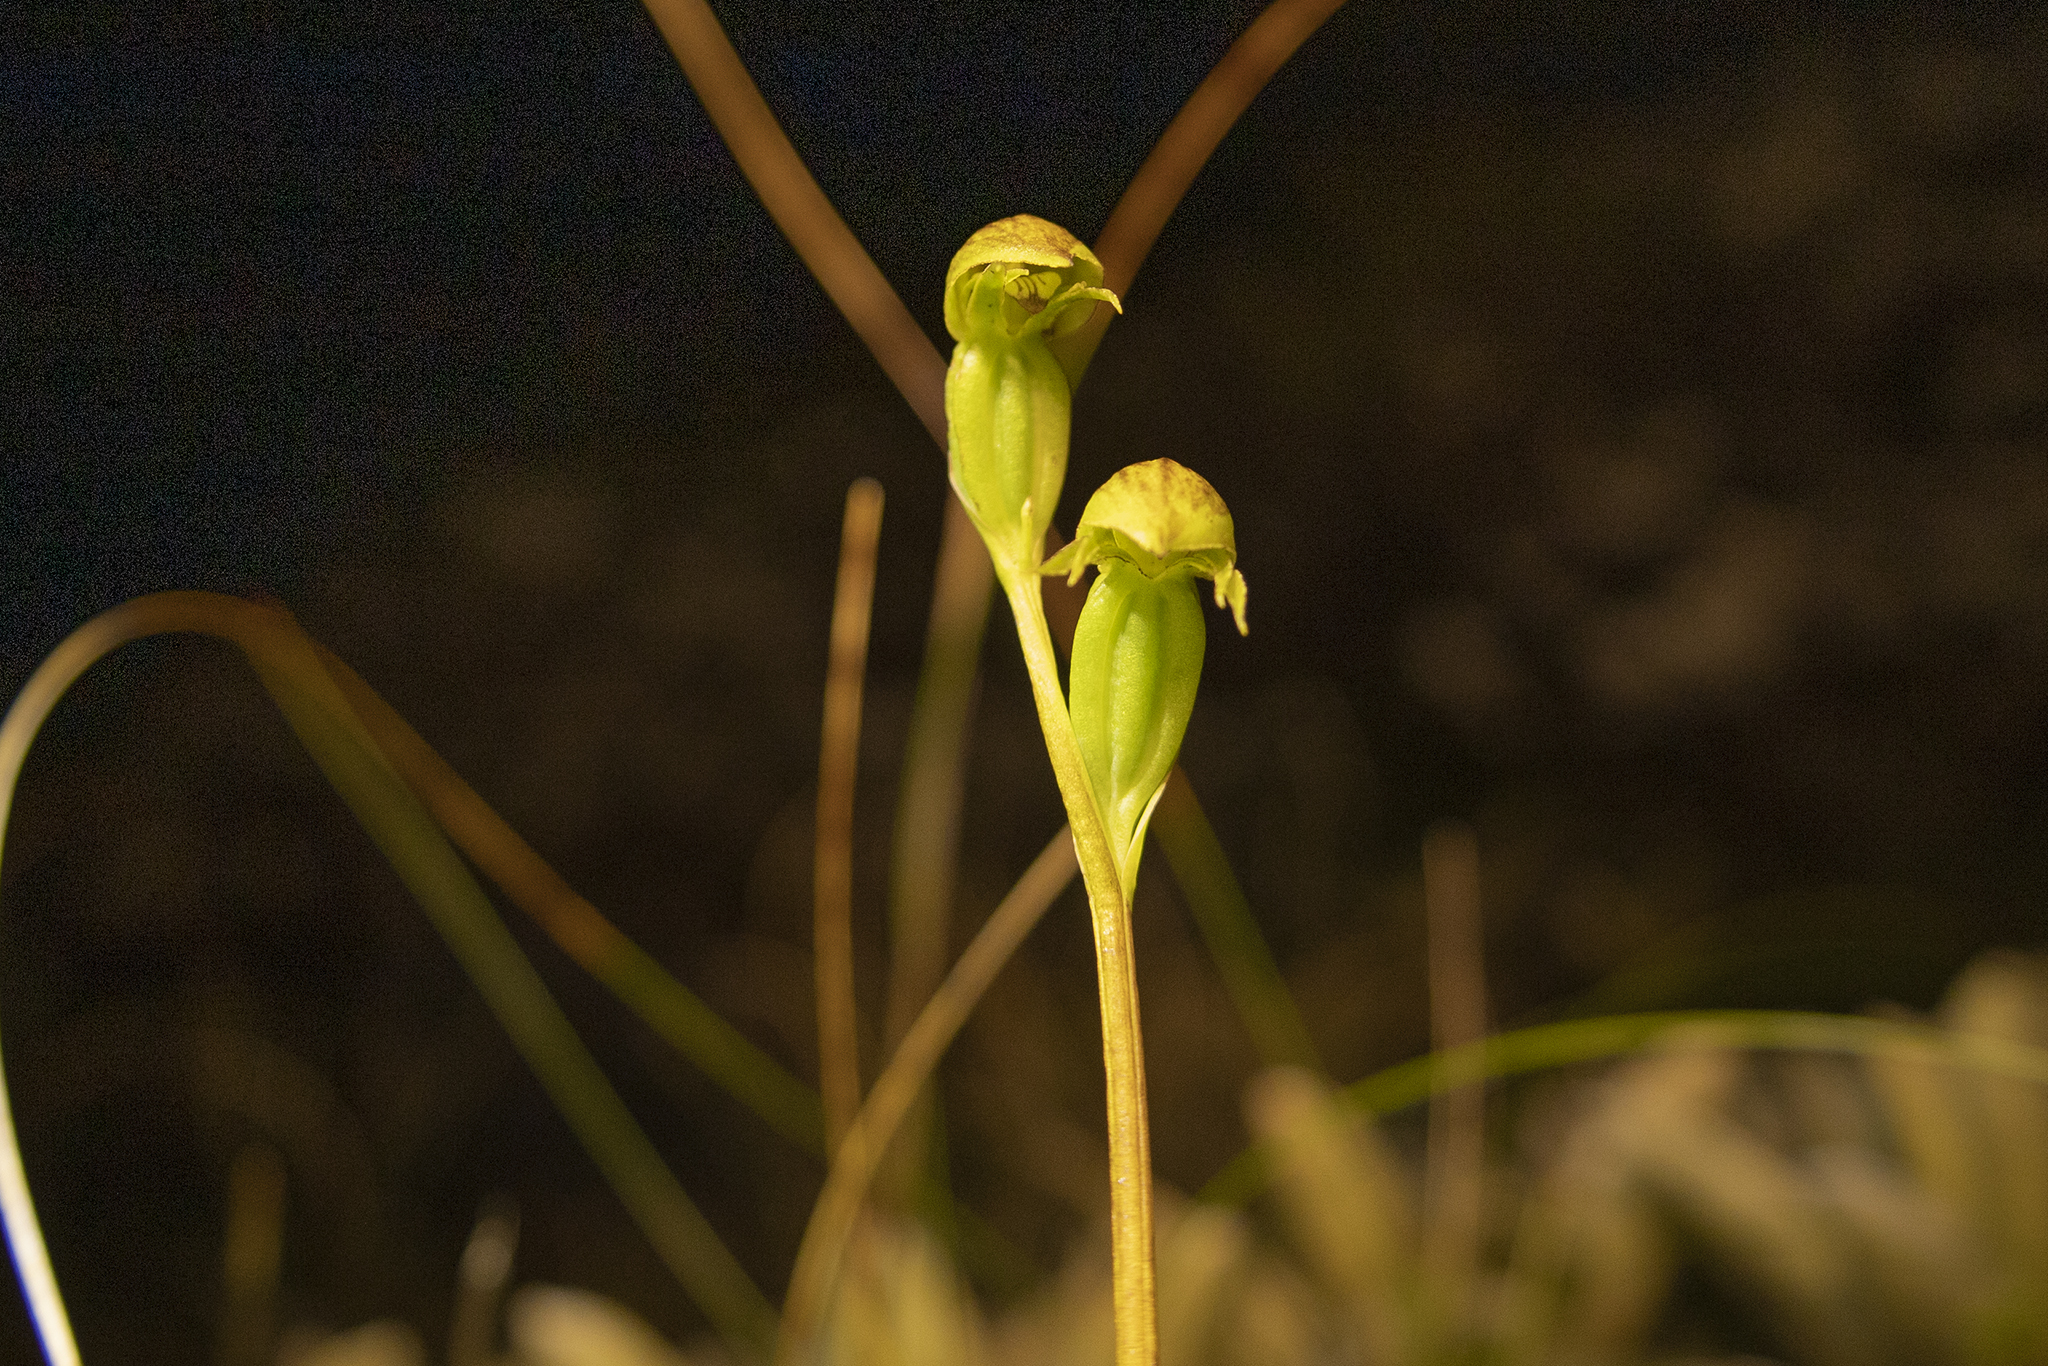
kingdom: Plantae
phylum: Tracheophyta
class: Liliopsida
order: Asparagales
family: Orchidaceae
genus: Waireia
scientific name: Waireia stenopetala
